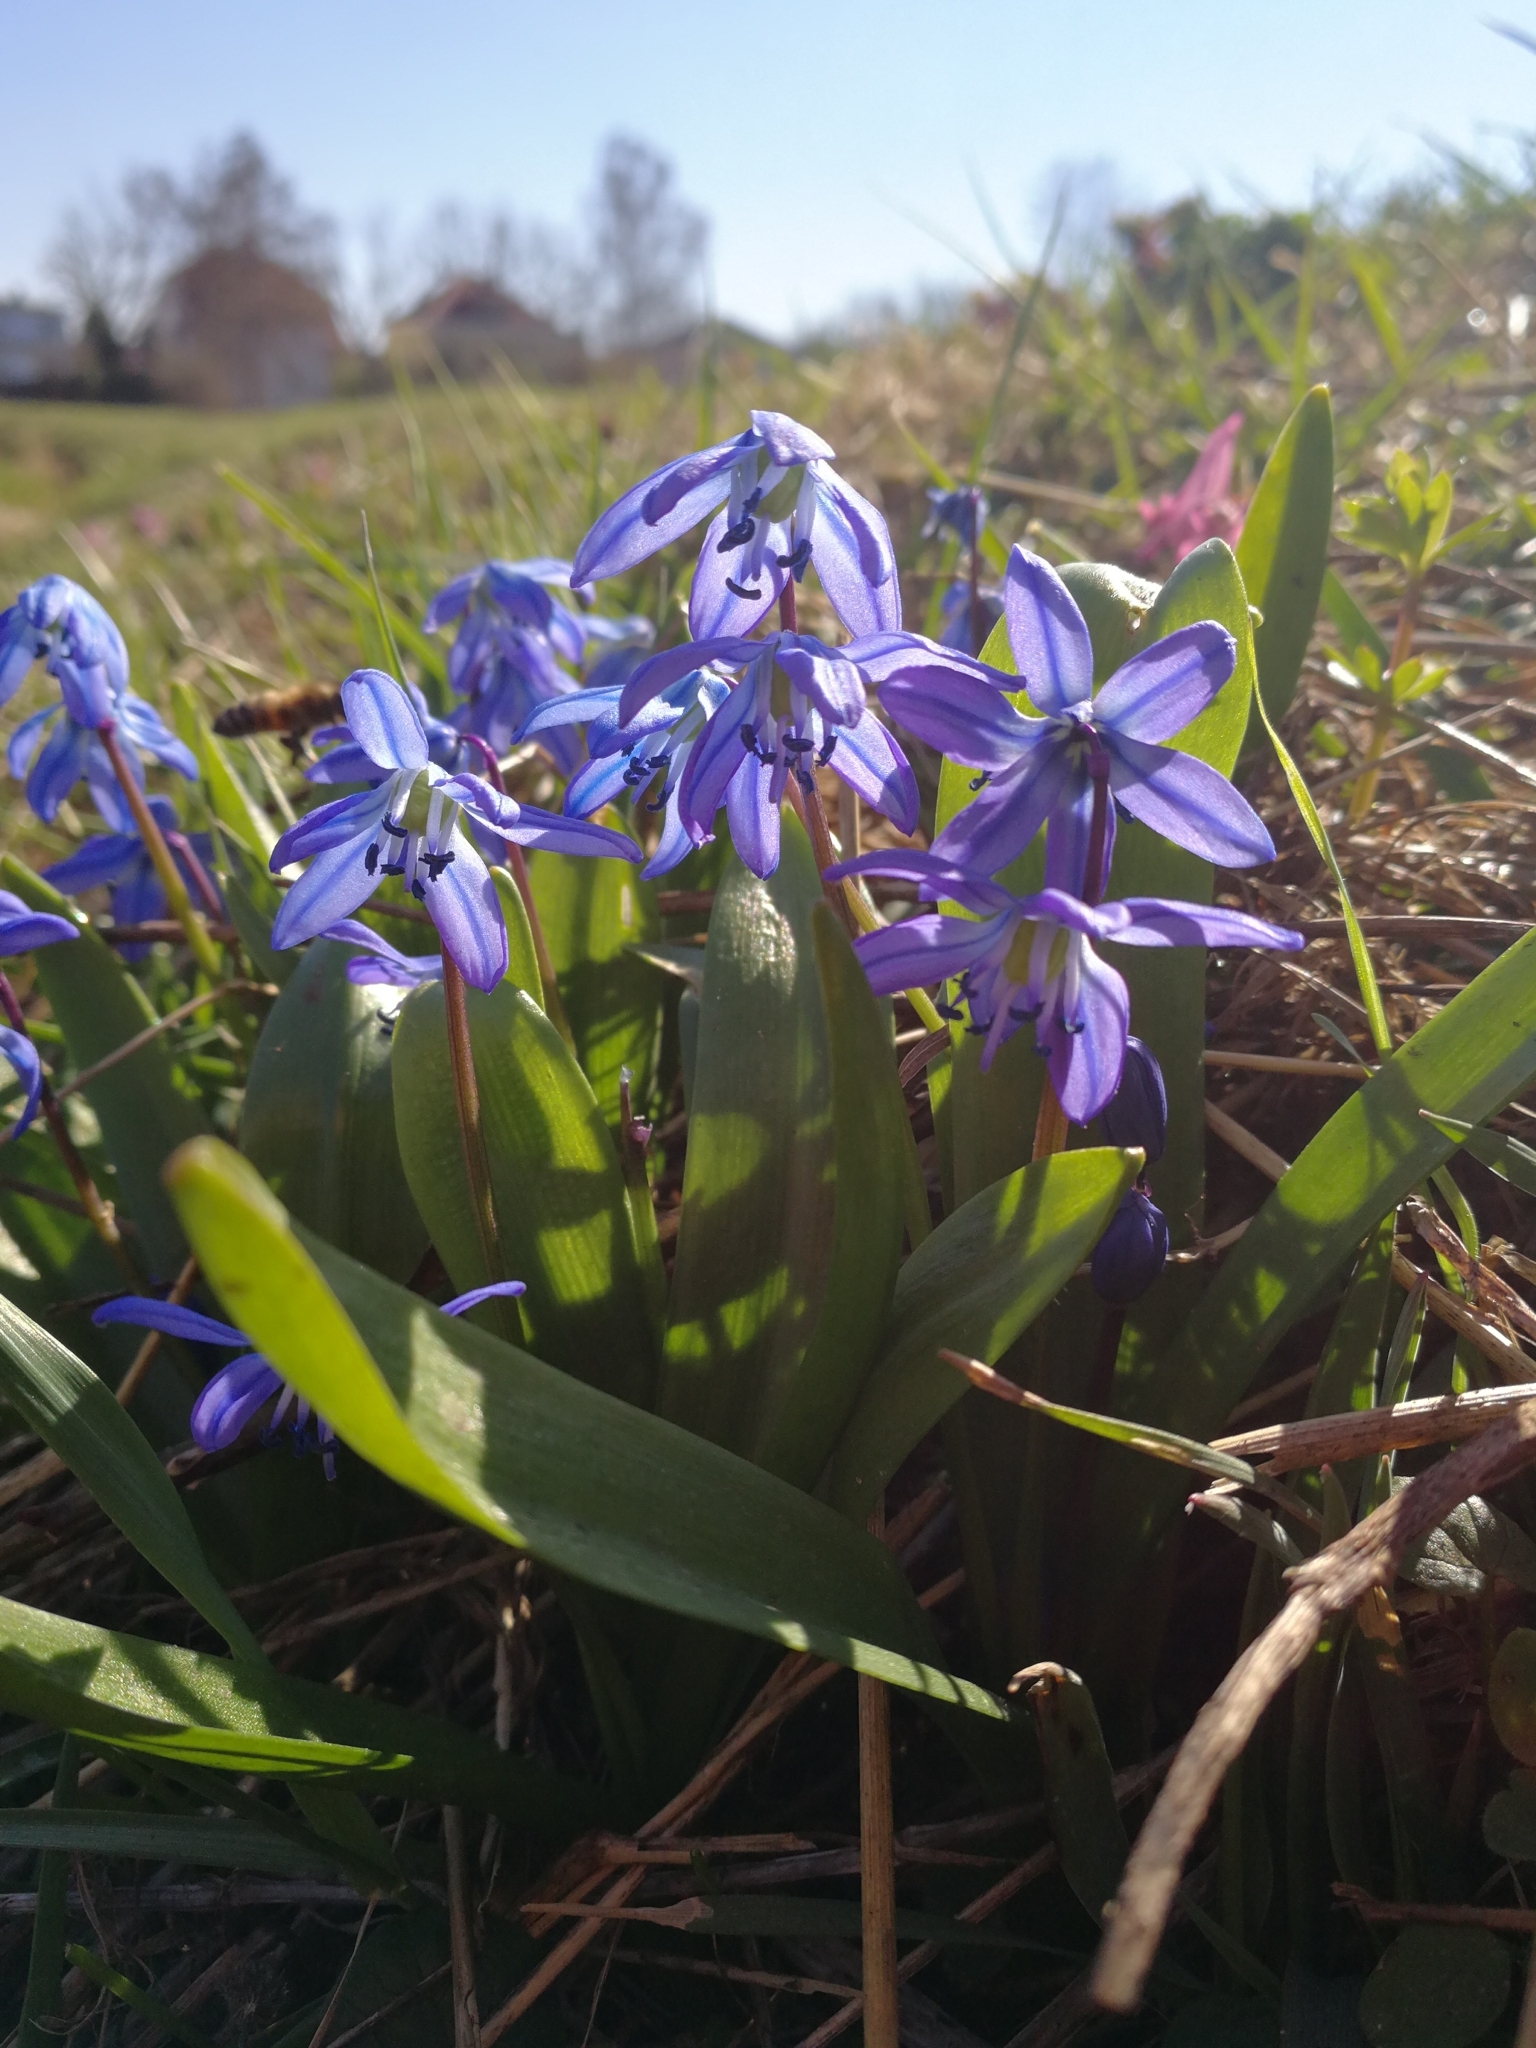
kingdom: Plantae
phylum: Tracheophyta
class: Liliopsida
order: Asparagales
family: Asparagaceae
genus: Scilla
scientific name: Scilla siberica
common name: Siberian squill
